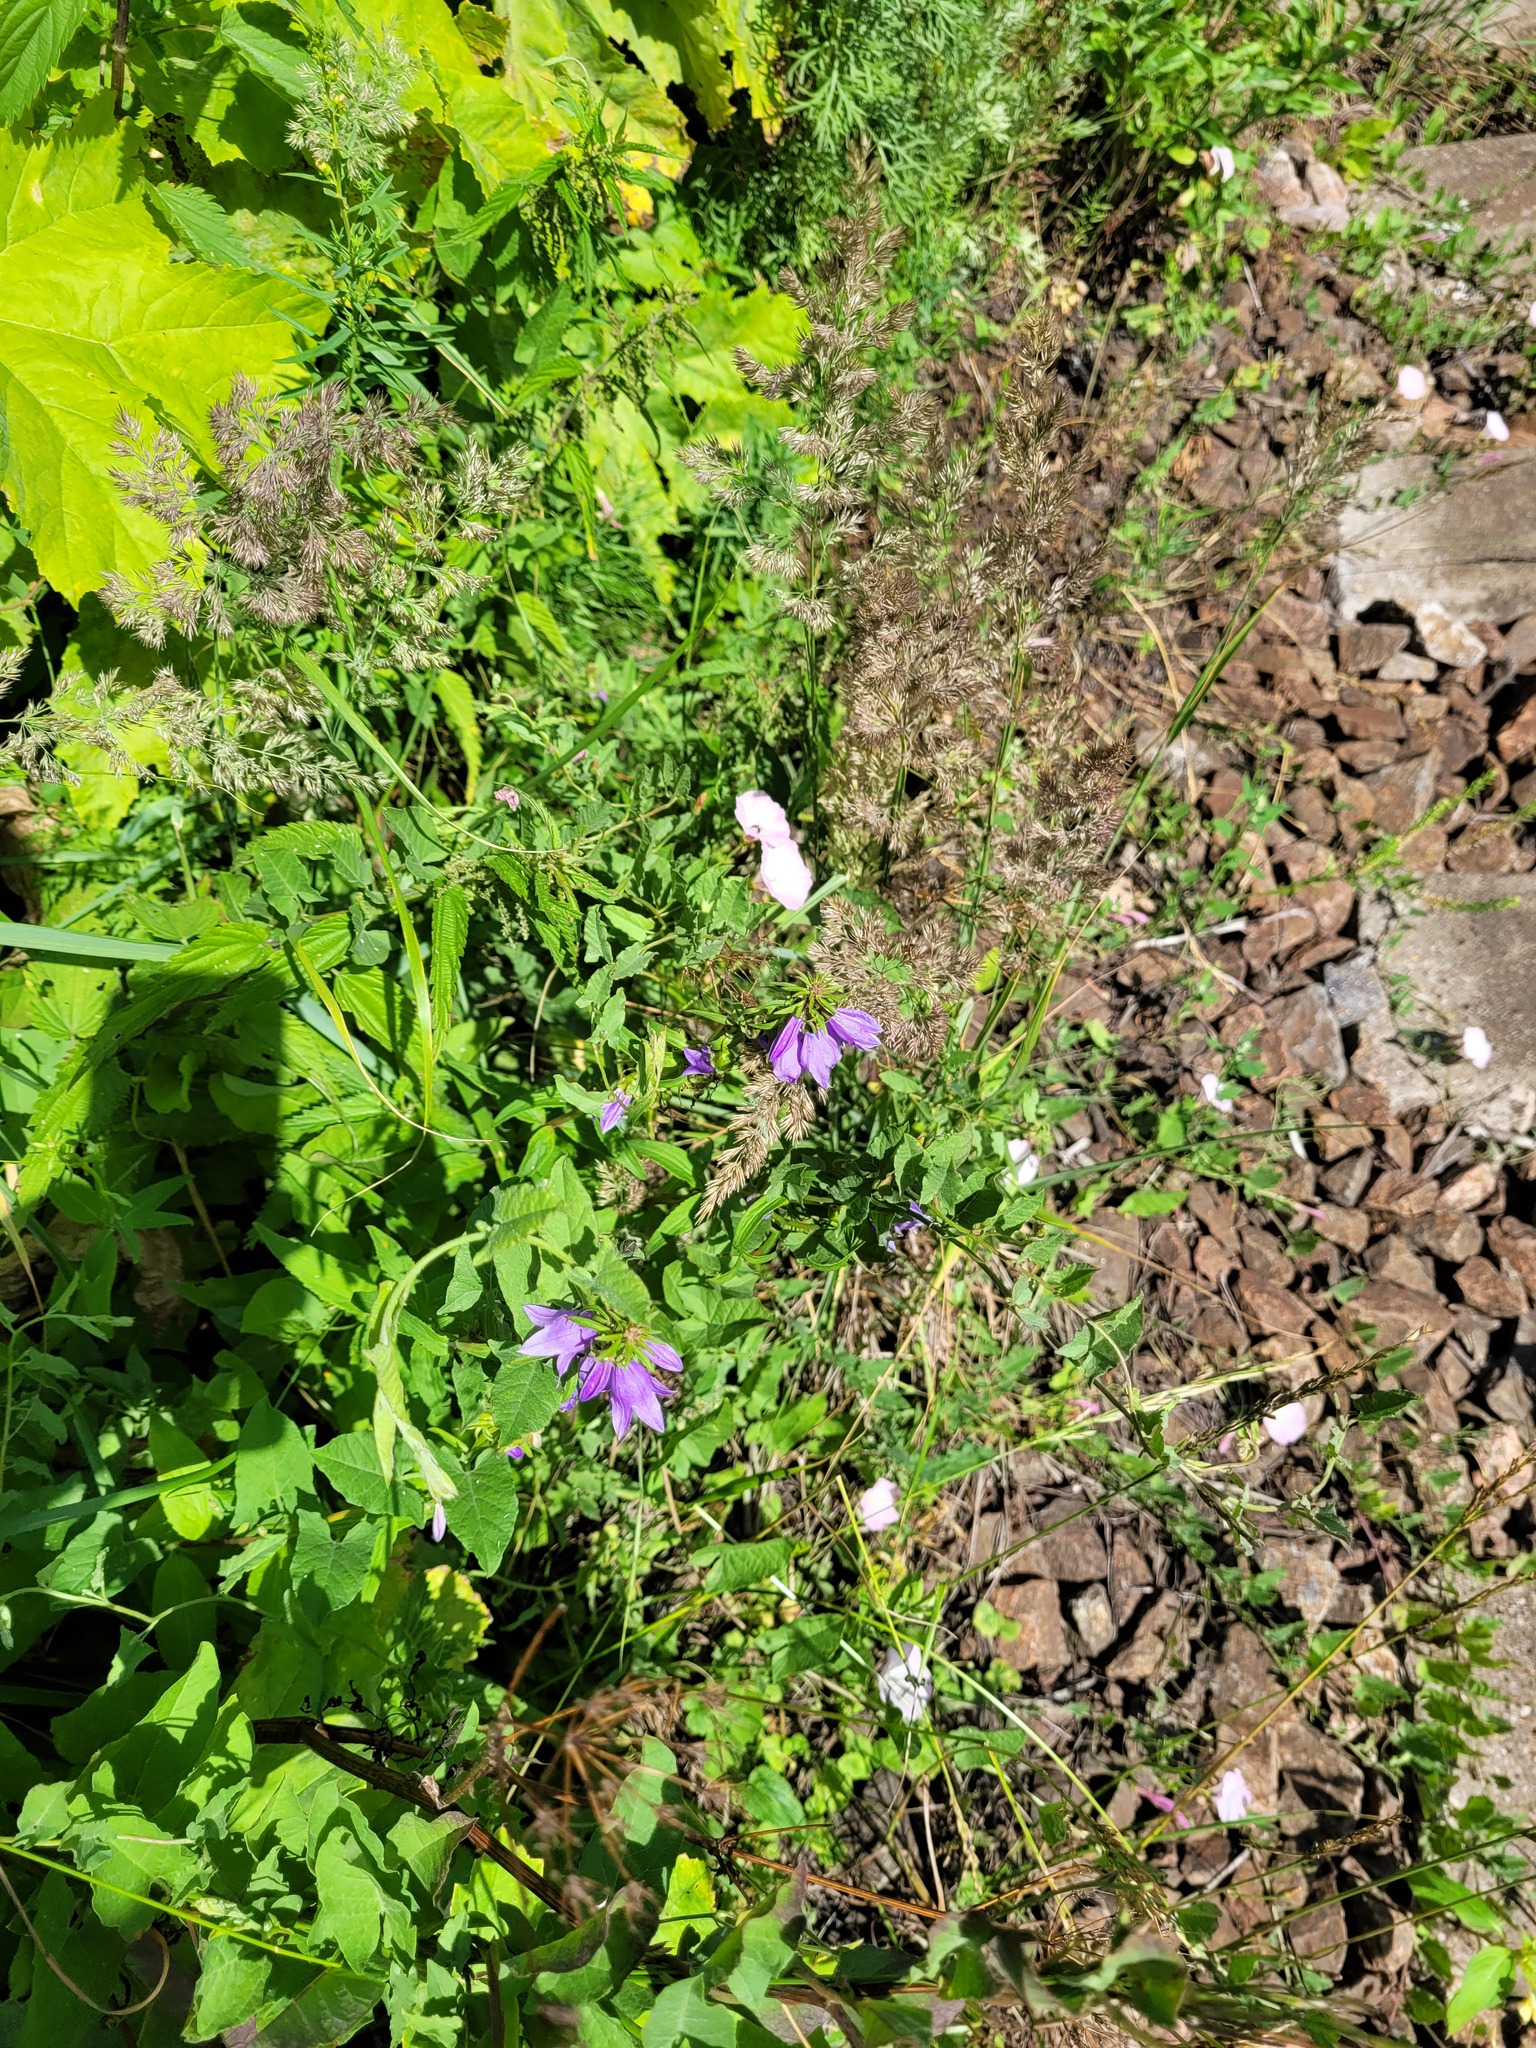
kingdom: Plantae
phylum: Tracheophyta
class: Magnoliopsida
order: Asterales
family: Campanulaceae
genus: Campanula
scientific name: Campanula rapunculoides
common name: Creeping bellflower
